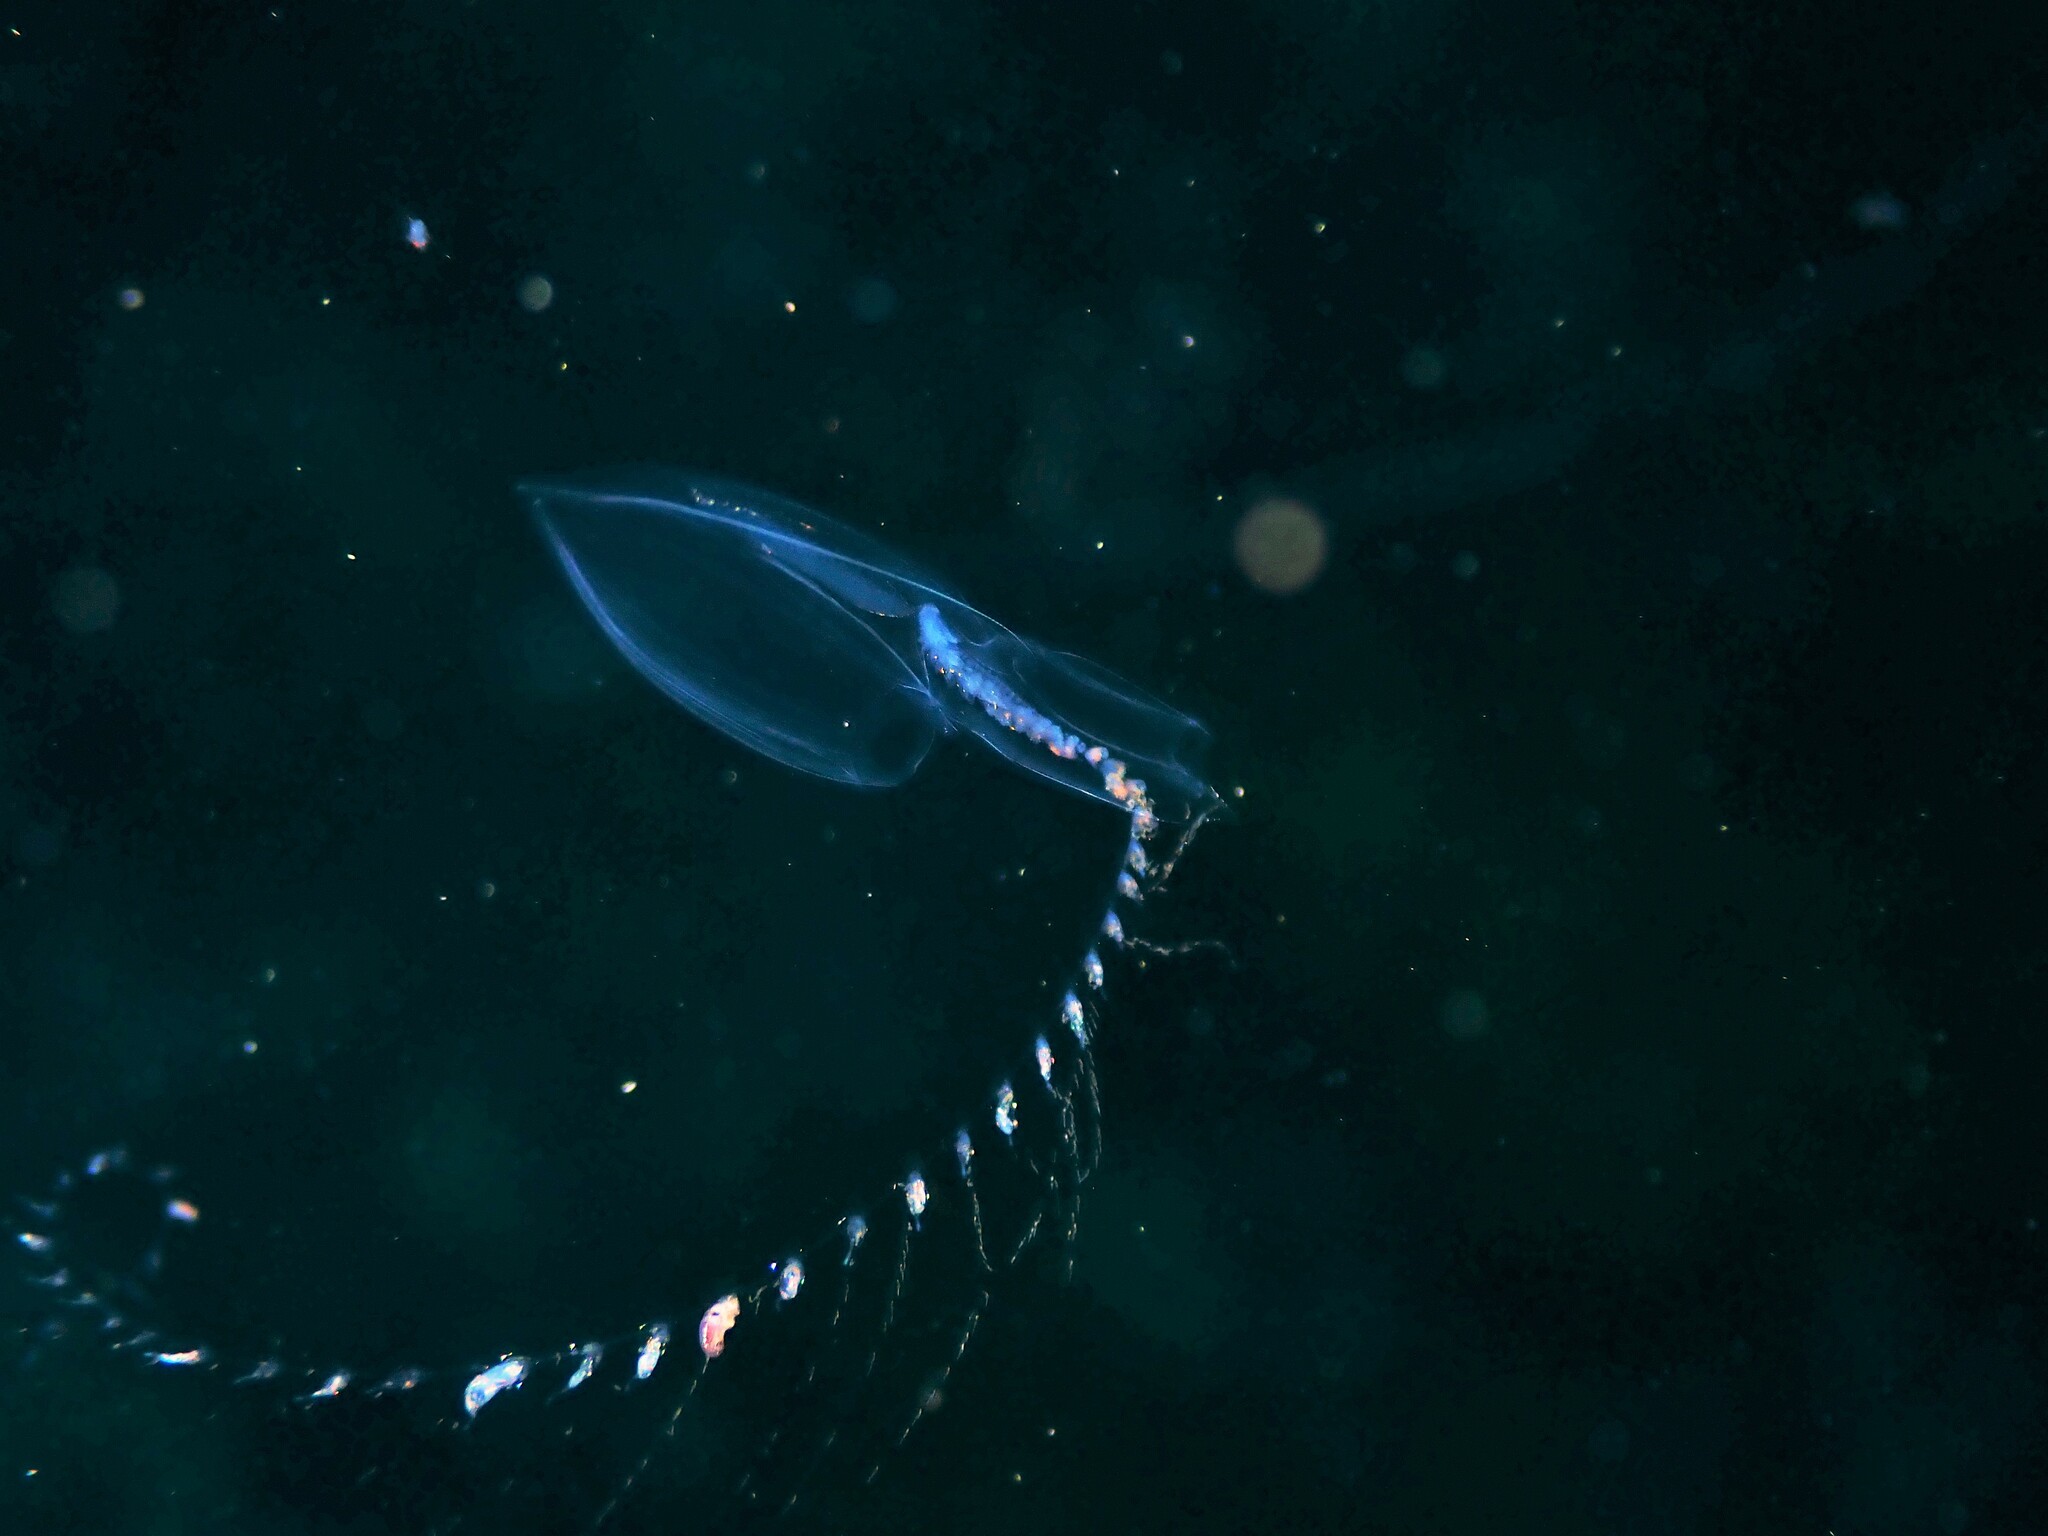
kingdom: Animalia
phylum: Cnidaria
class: Hydrozoa
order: Siphonophorae
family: Diphyidae
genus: Chelophyes
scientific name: Chelophyes appendiculata
